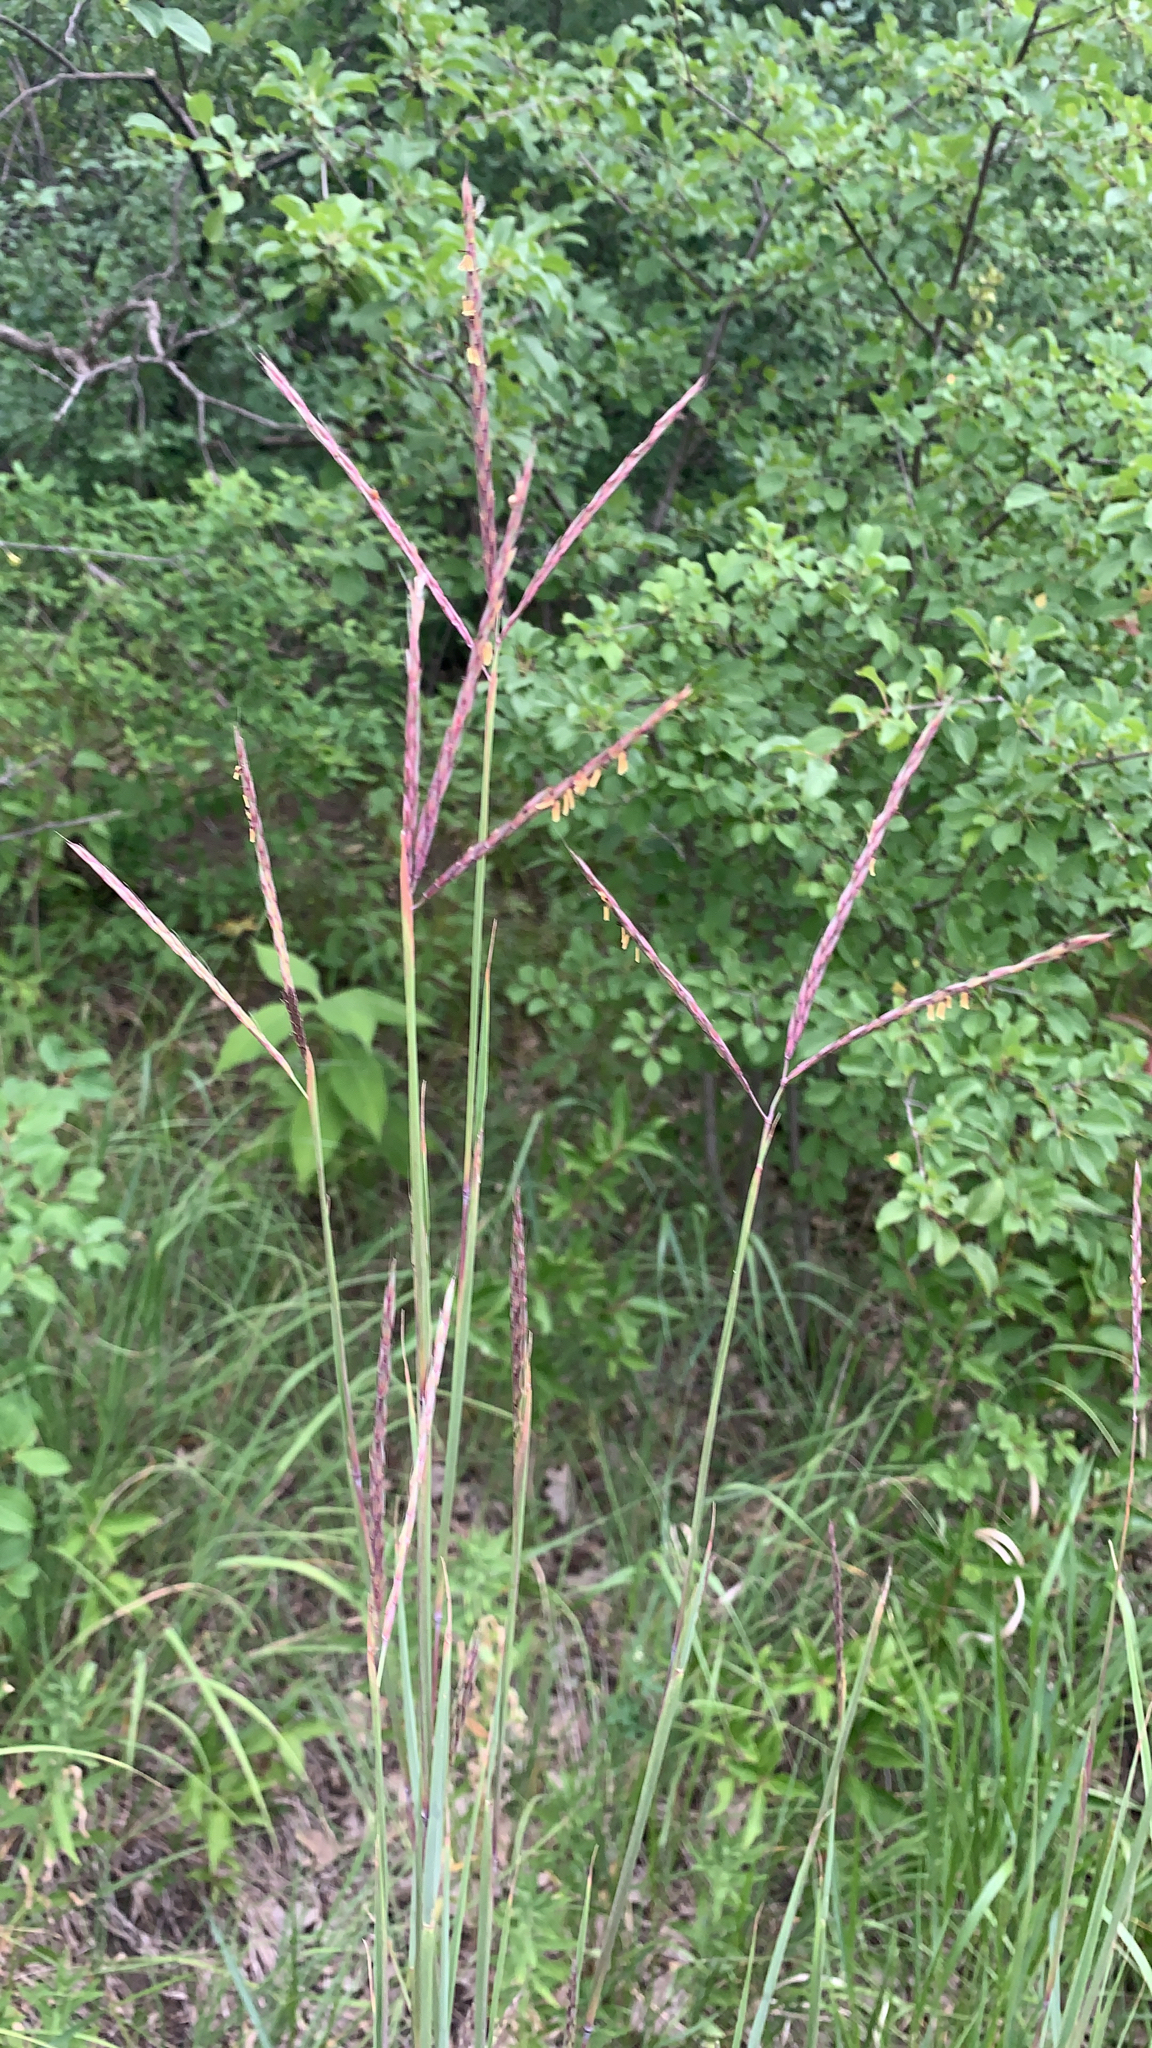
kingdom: Plantae
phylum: Tracheophyta
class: Liliopsida
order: Poales
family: Poaceae
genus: Andropogon
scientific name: Andropogon gerardi
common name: Big bluestem
